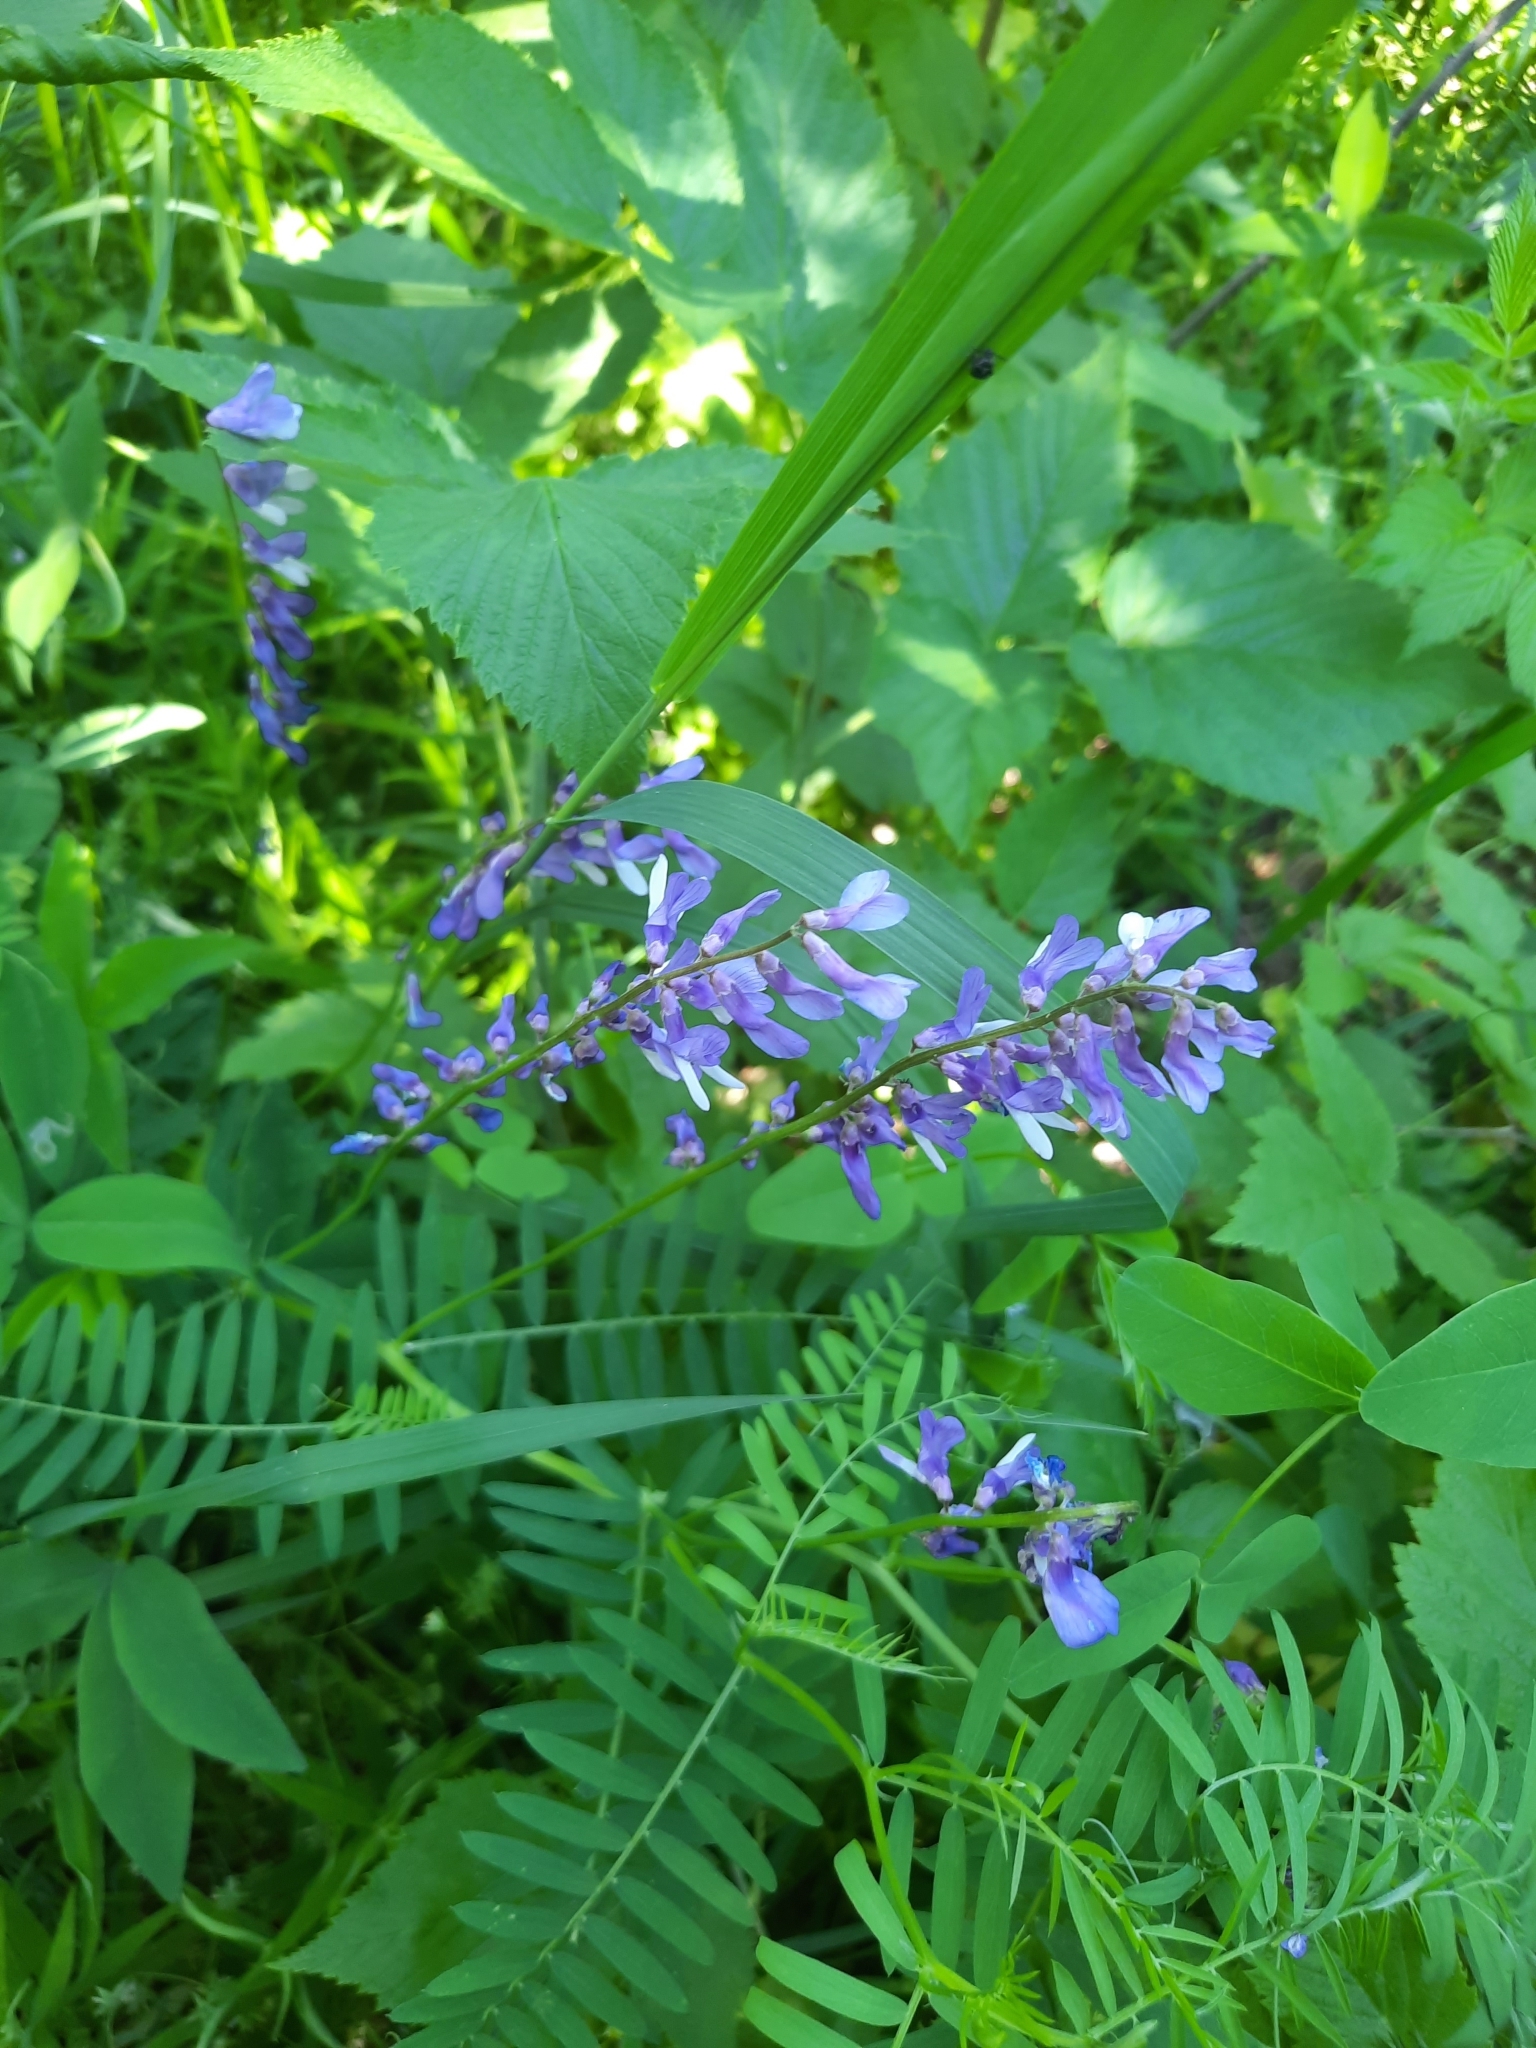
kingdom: Plantae
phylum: Tracheophyta
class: Magnoliopsida
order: Fabales
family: Fabaceae
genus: Vicia
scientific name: Vicia tenuifolia
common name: Fine-leaved vetch
